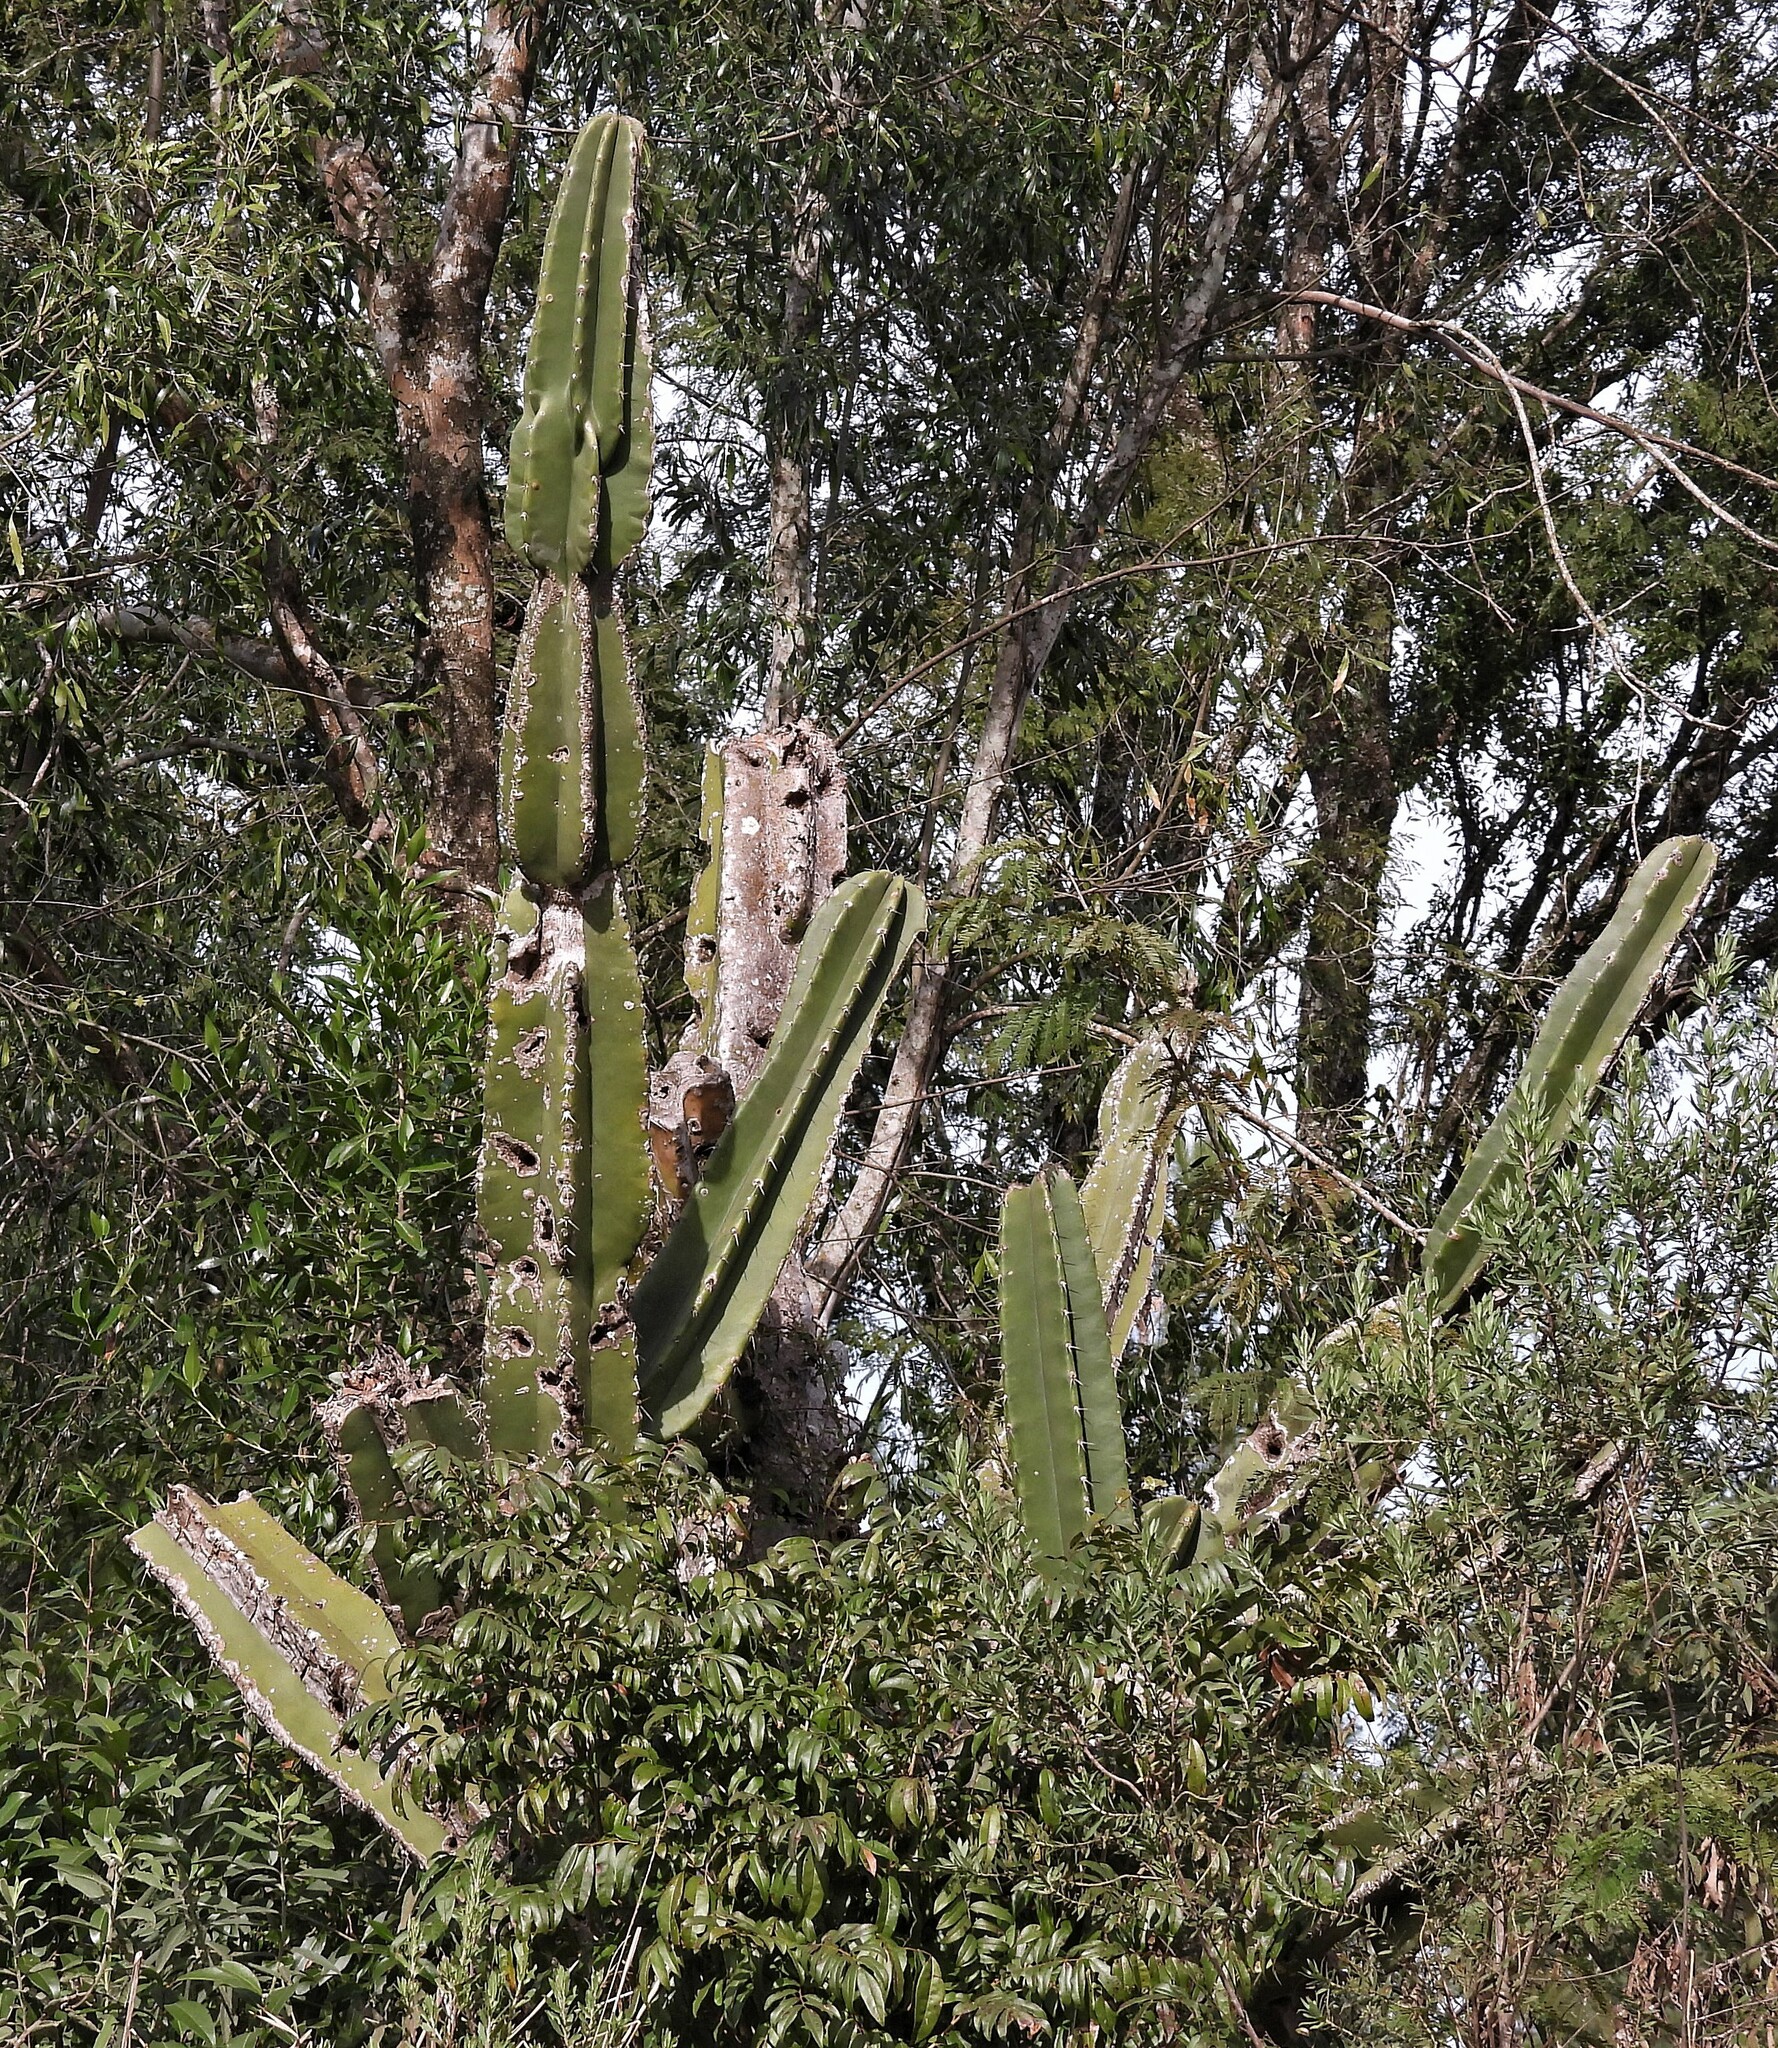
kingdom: Plantae
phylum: Tracheophyta
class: Magnoliopsida
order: Caryophyllales
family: Cactaceae
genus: Cereus
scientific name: Cereus stenogonus
